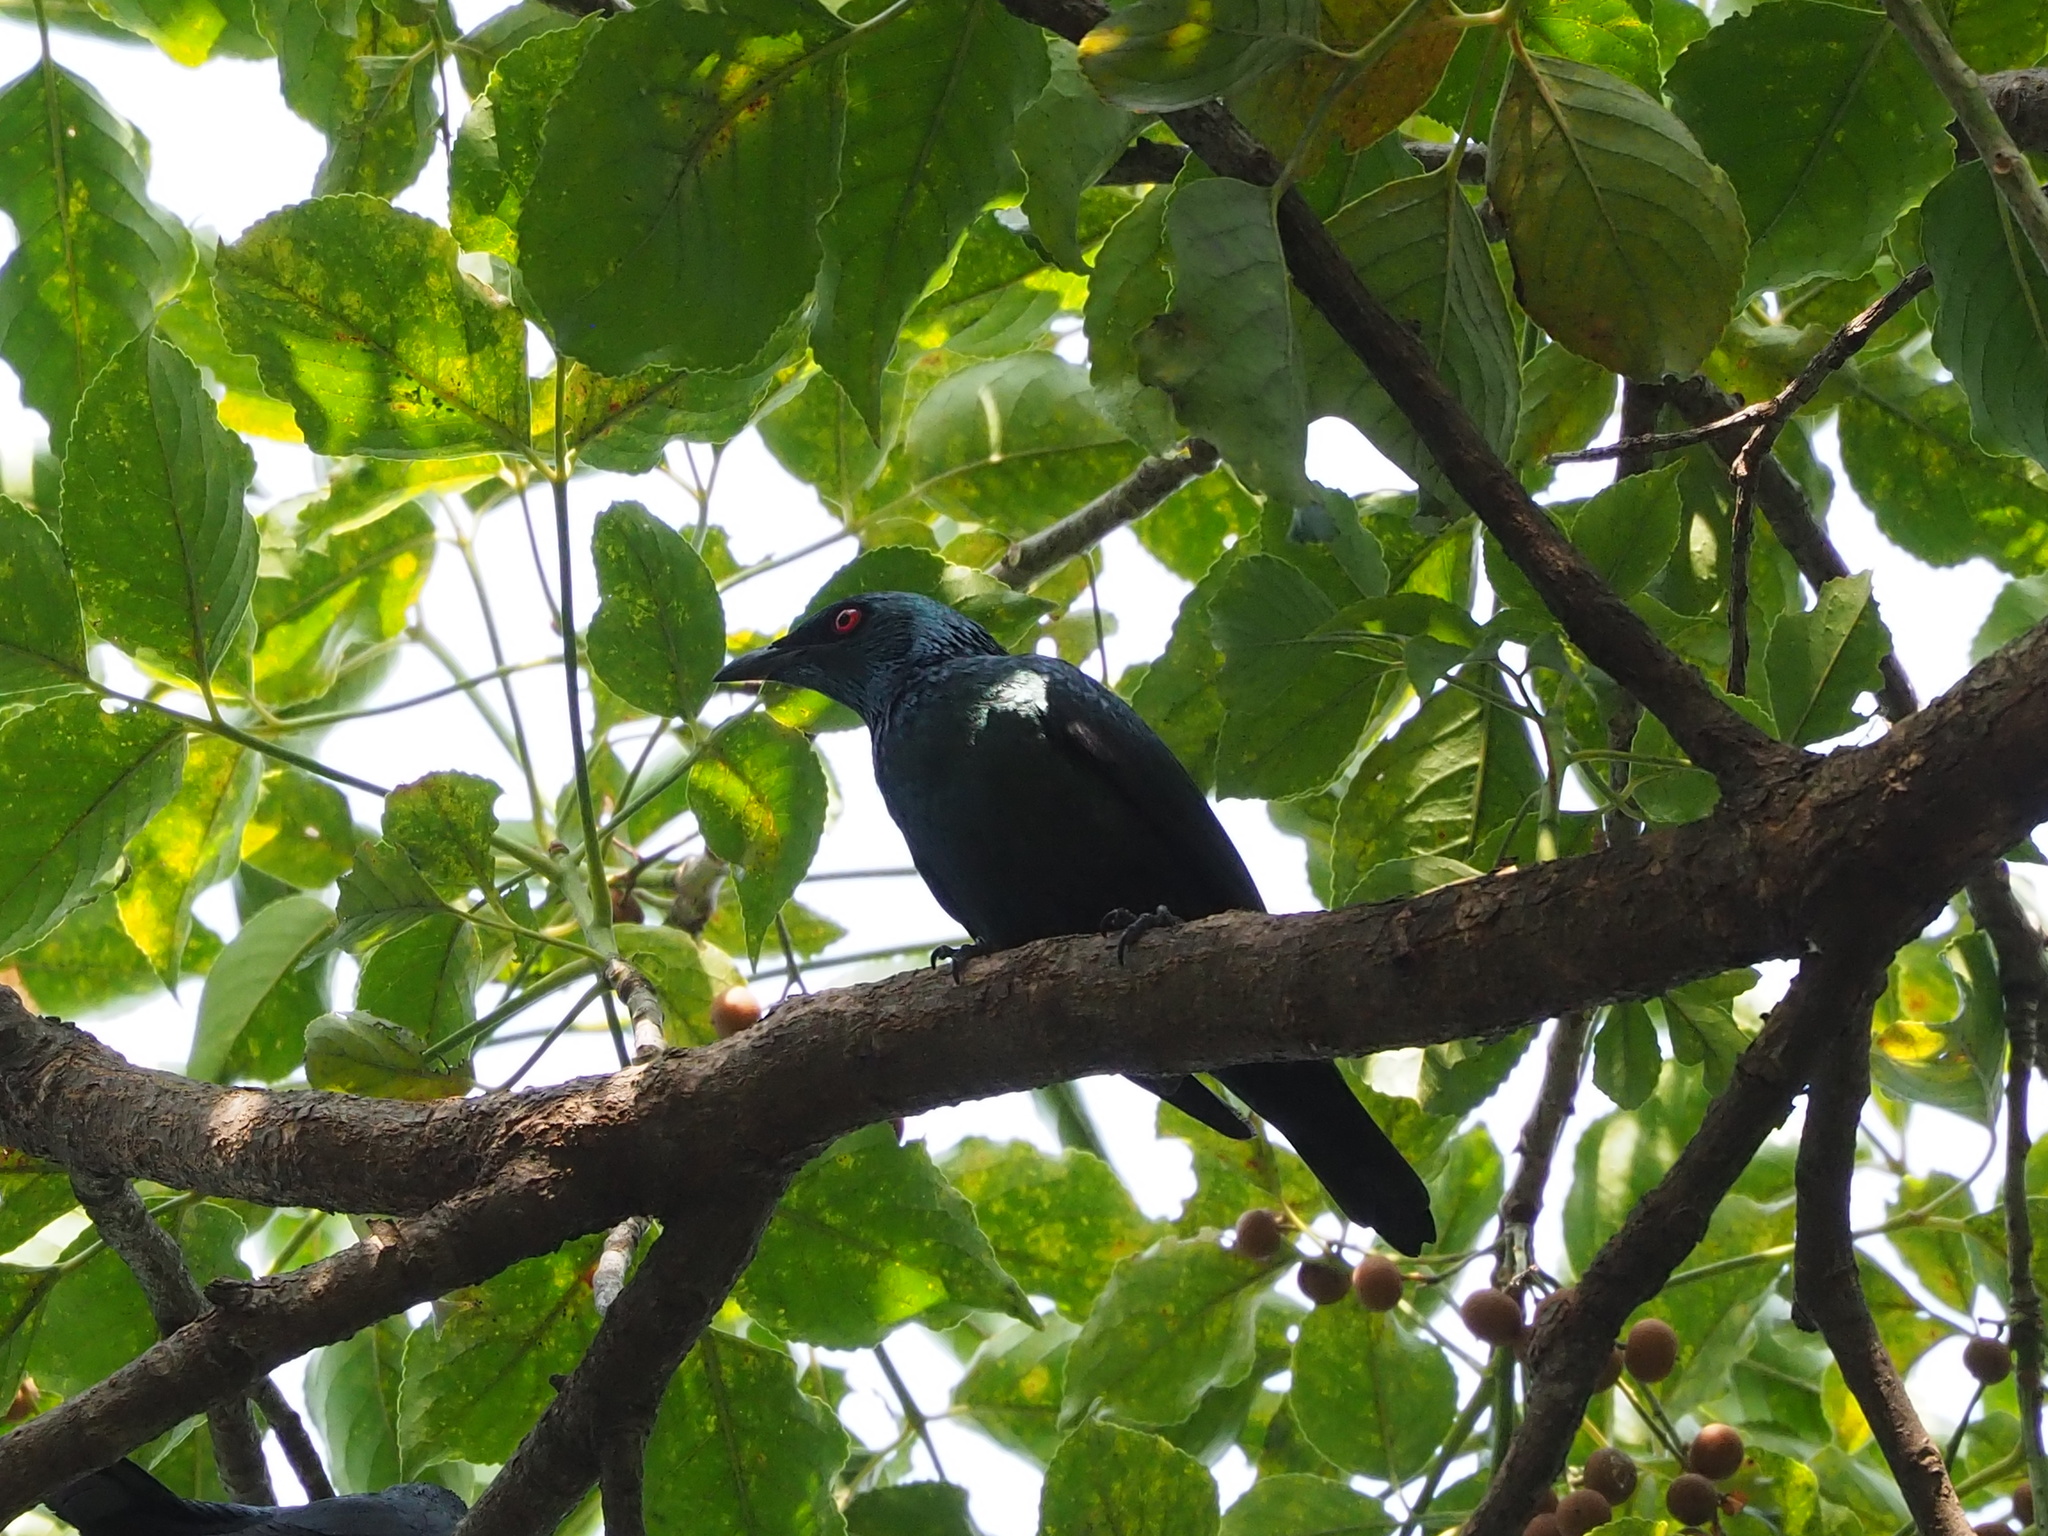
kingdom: Animalia
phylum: Chordata
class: Aves
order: Passeriformes
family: Sturnidae
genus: Aplonis
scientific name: Aplonis panayensis
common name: Asian glossy starling
